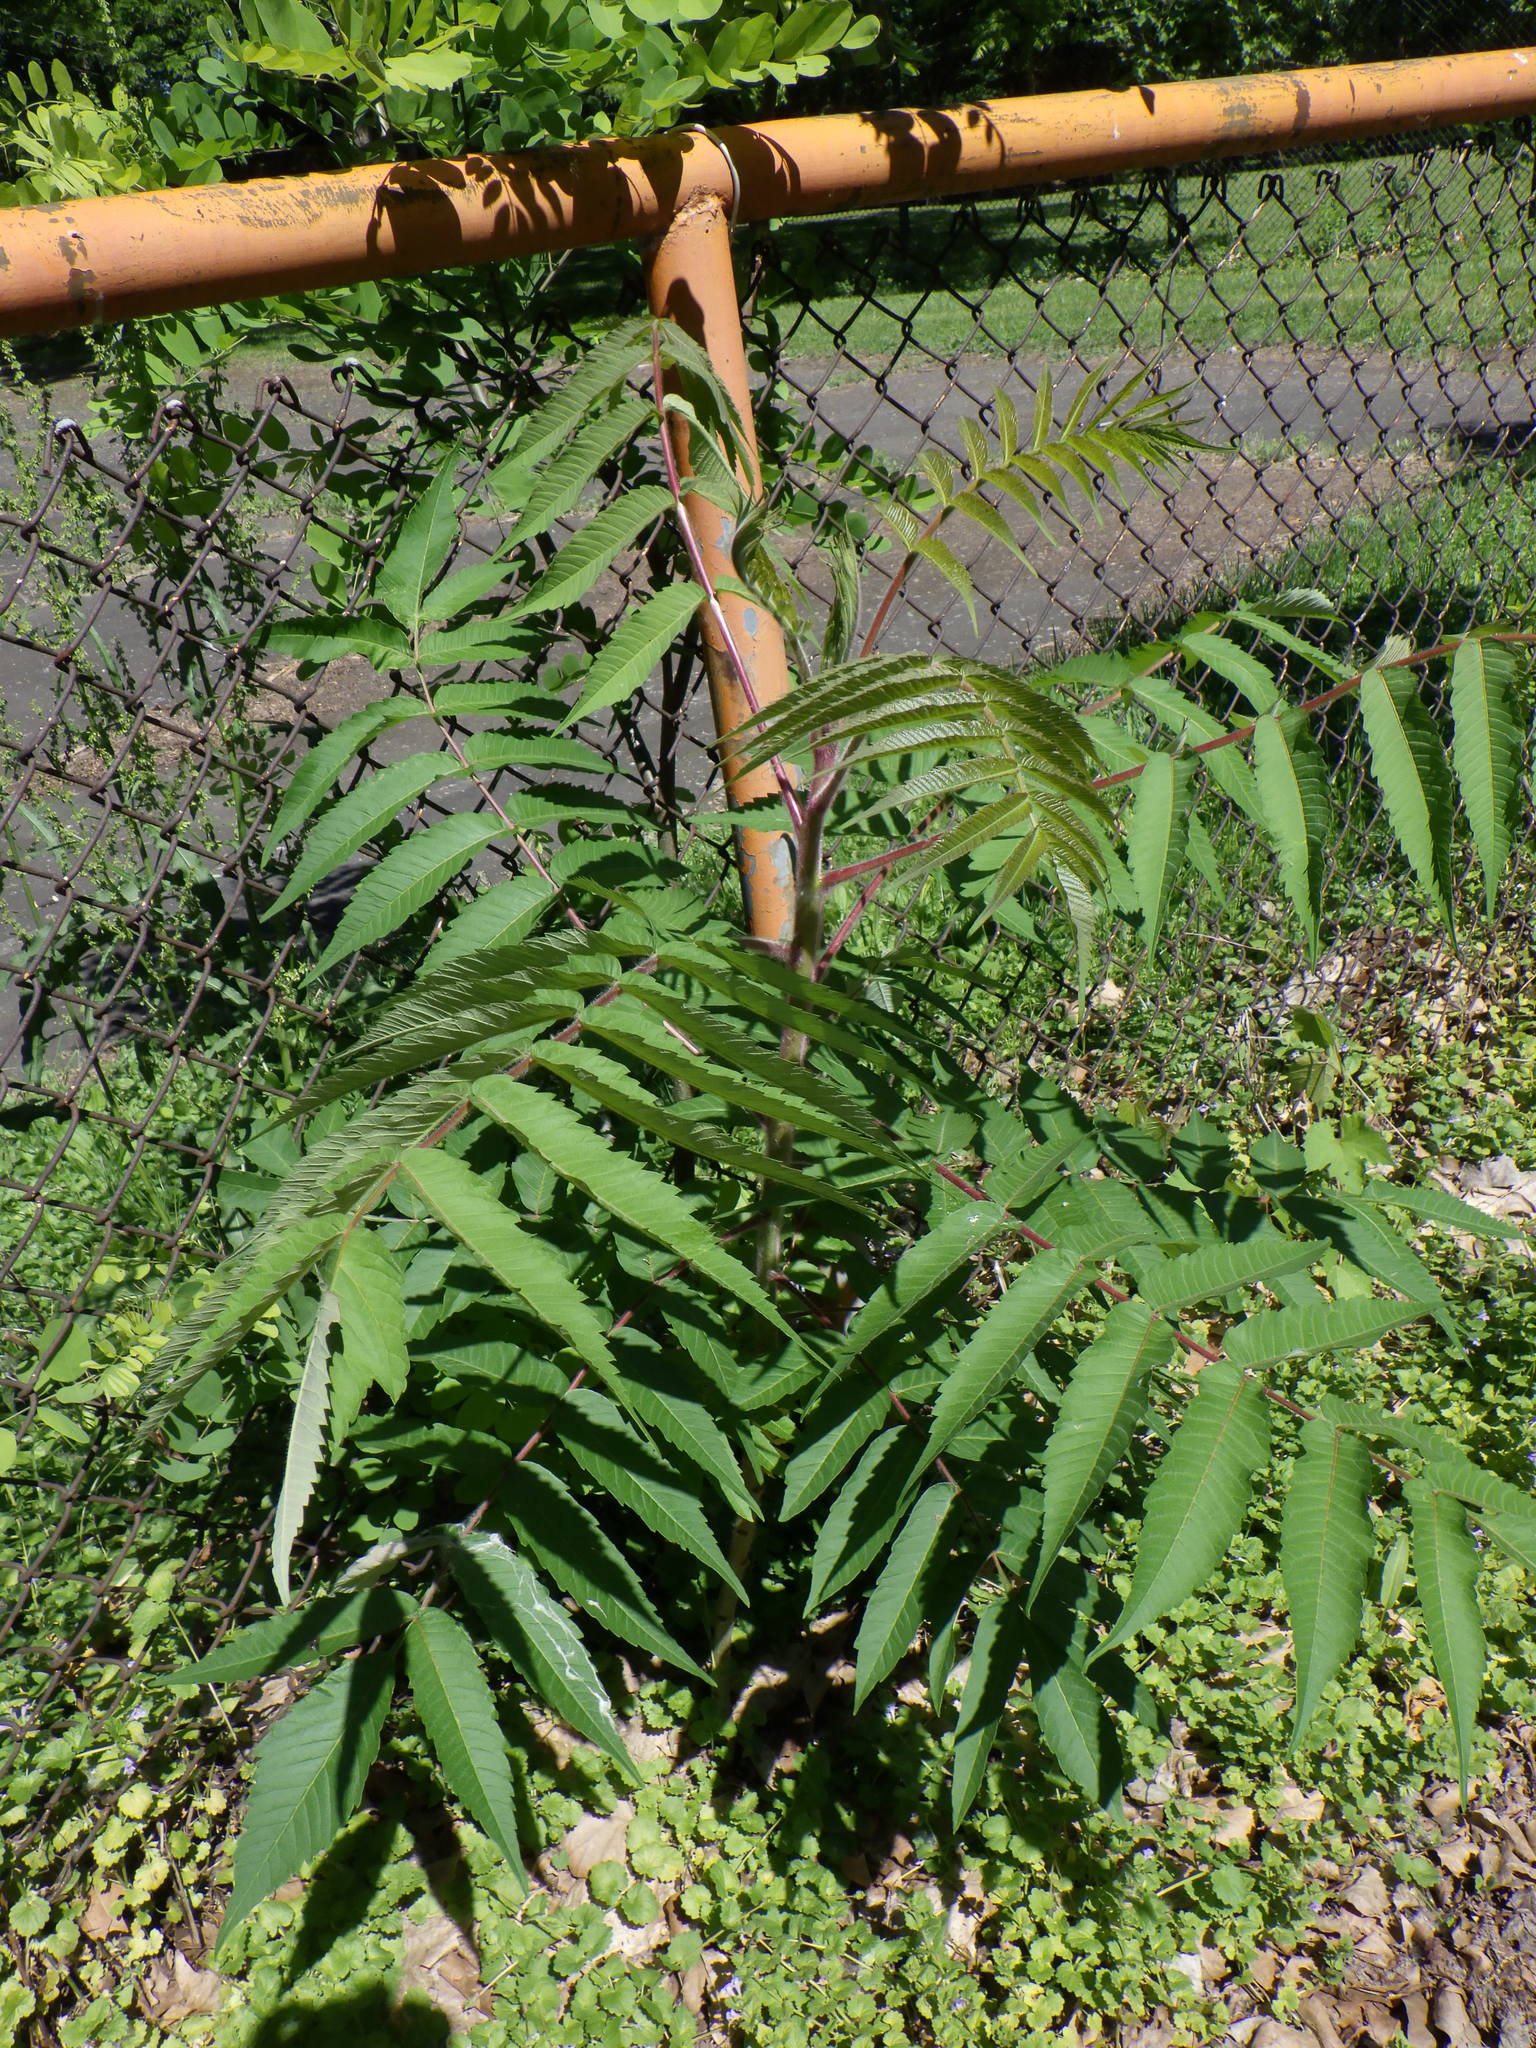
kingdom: Plantae
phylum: Tracheophyta
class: Magnoliopsida
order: Sapindales
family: Anacardiaceae
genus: Rhus
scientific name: Rhus typhina
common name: Staghorn sumac
